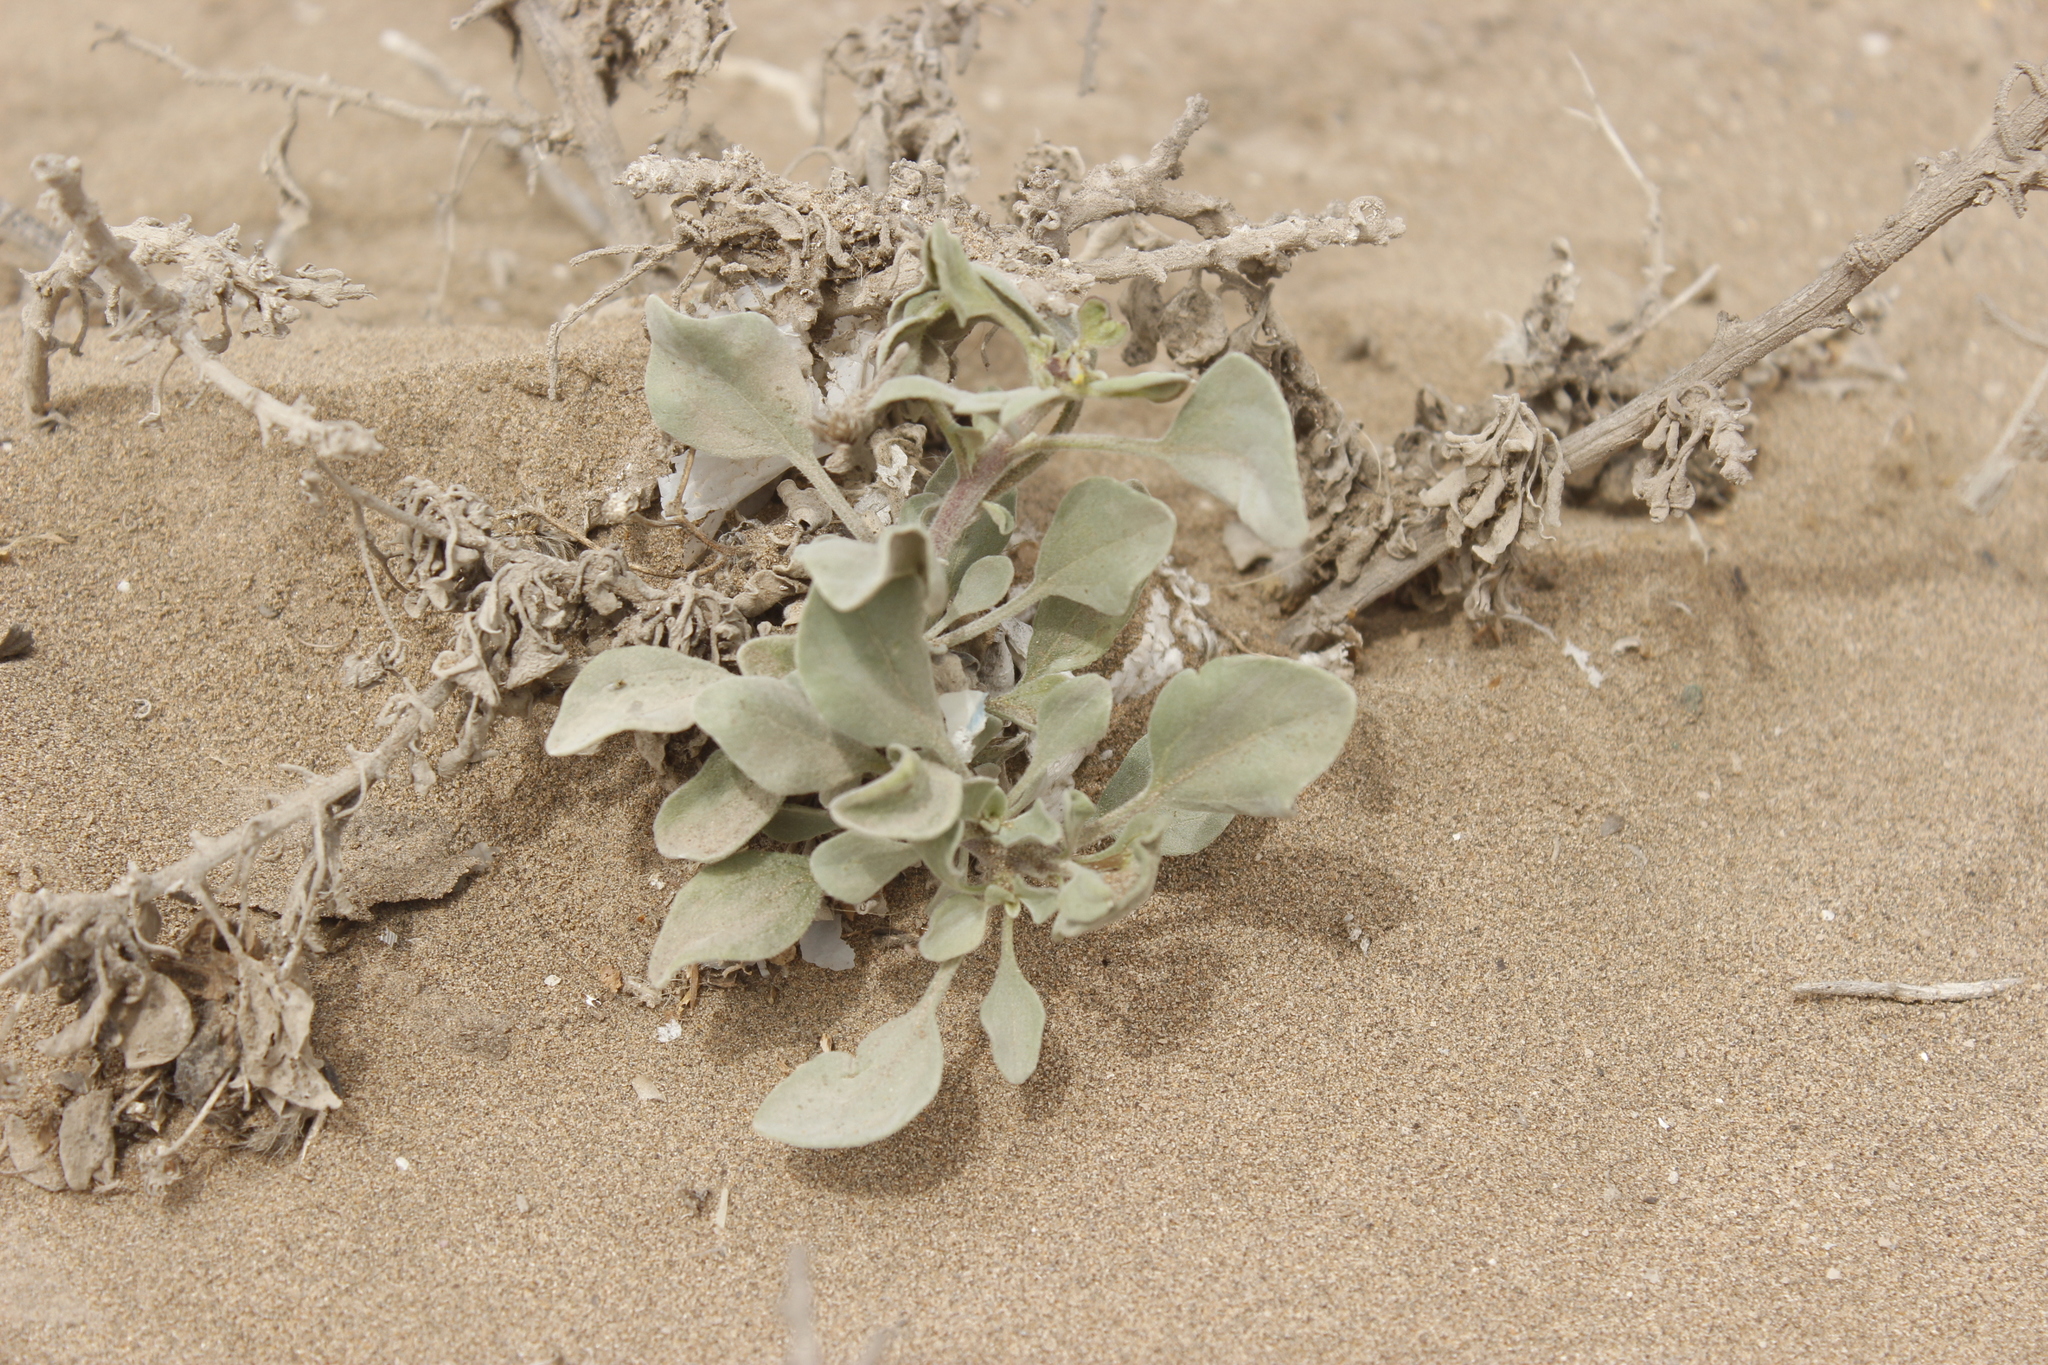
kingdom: Plantae
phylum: Tracheophyta
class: Magnoliopsida
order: Asterales
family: Asteraceae
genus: Encelia
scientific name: Encelia canescens
